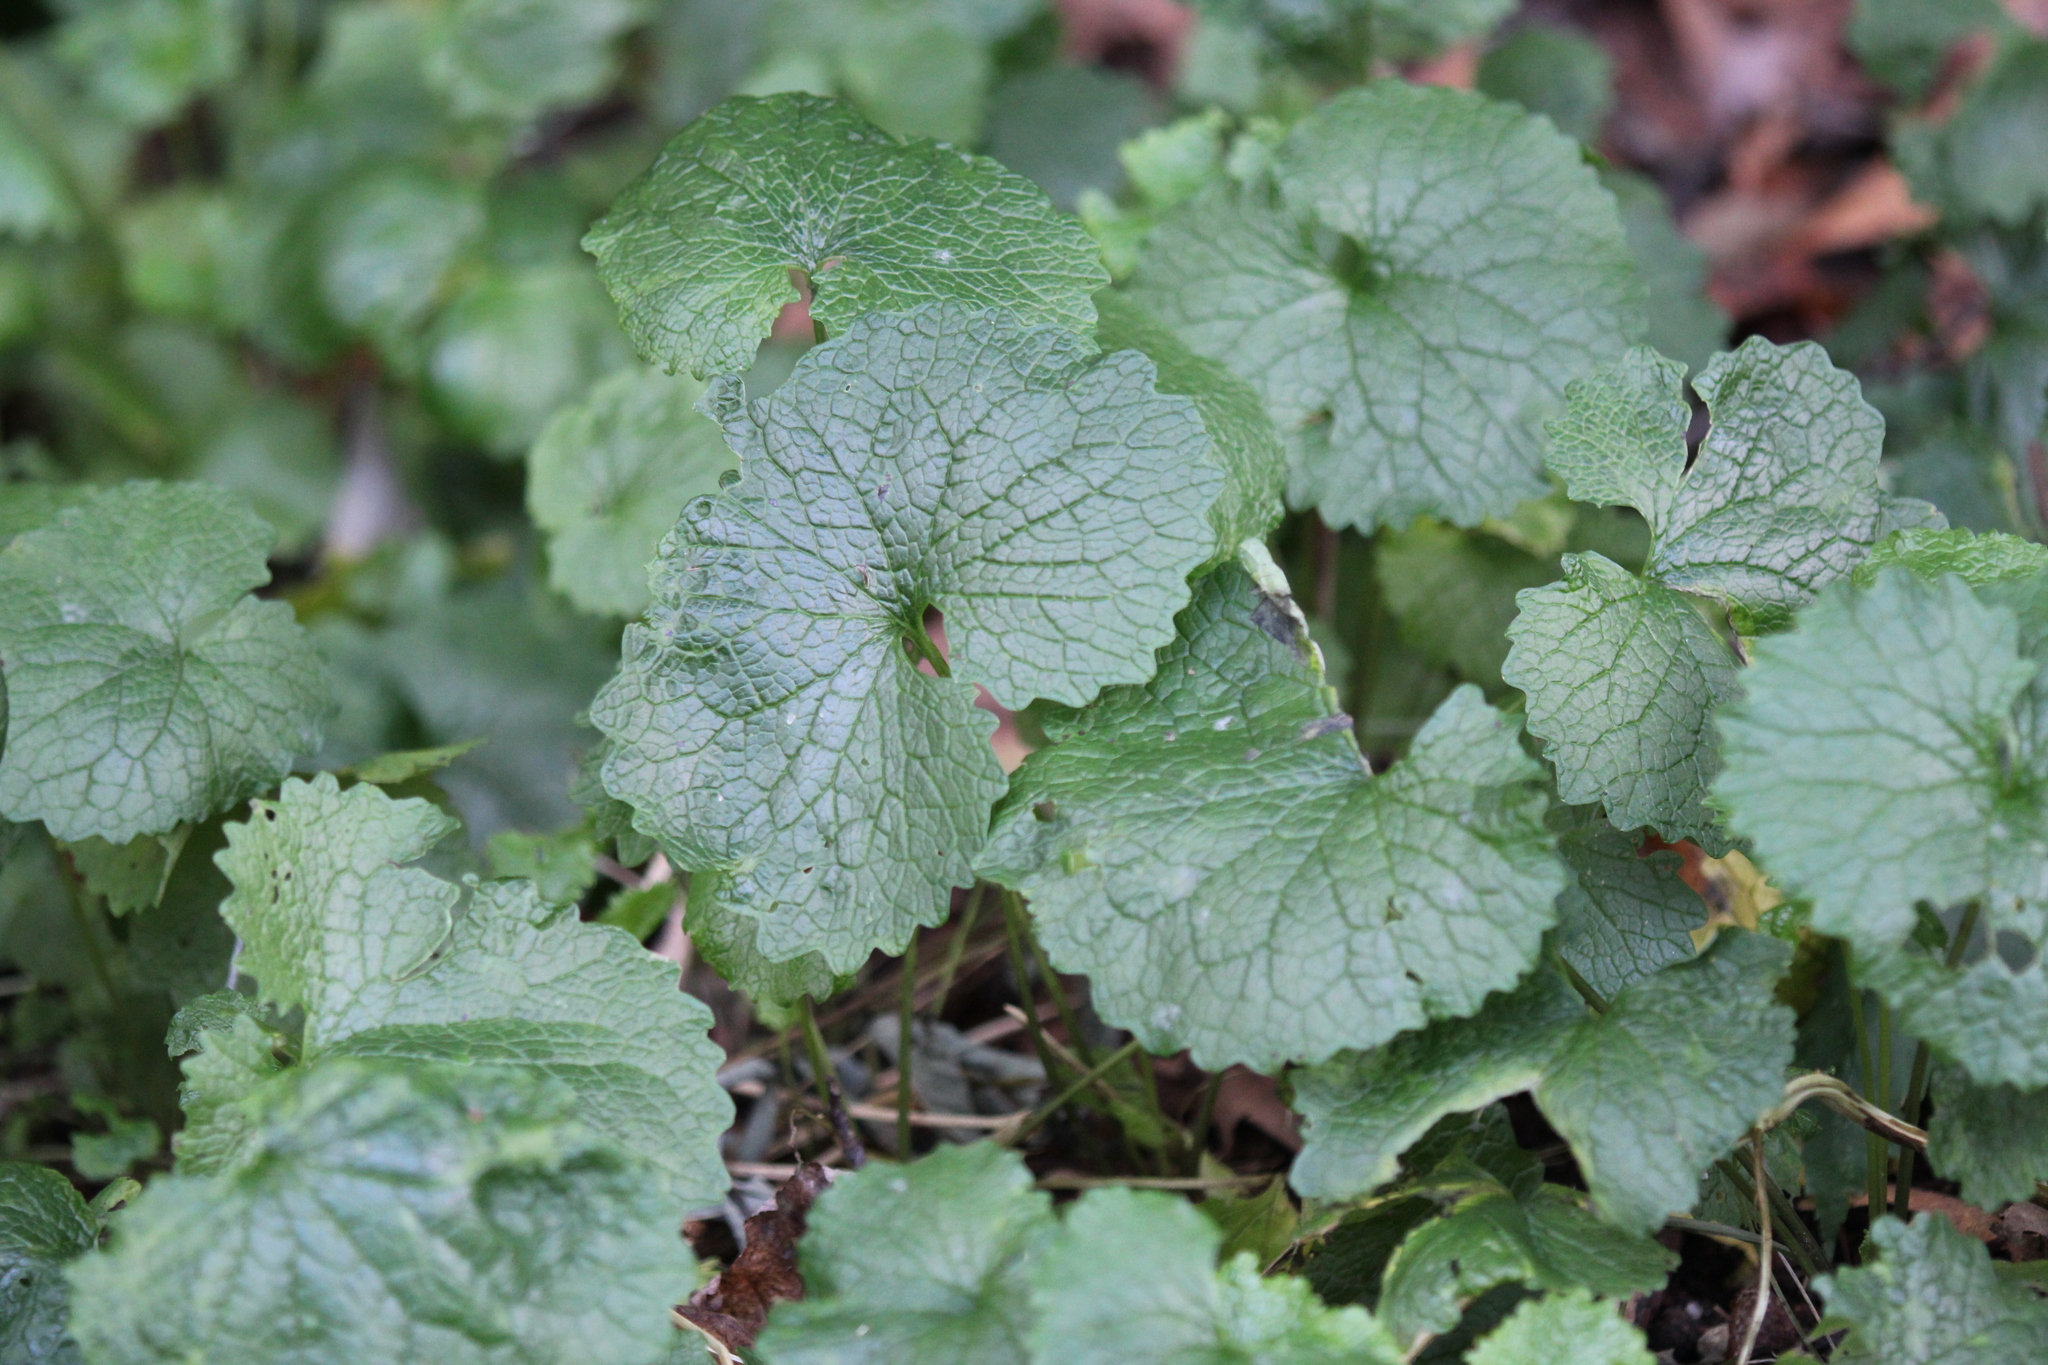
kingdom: Plantae
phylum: Tracheophyta
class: Magnoliopsida
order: Brassicales
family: Brassicaceae
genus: Alliaria
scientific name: Alliaria petiolata
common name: Garlic mustard
